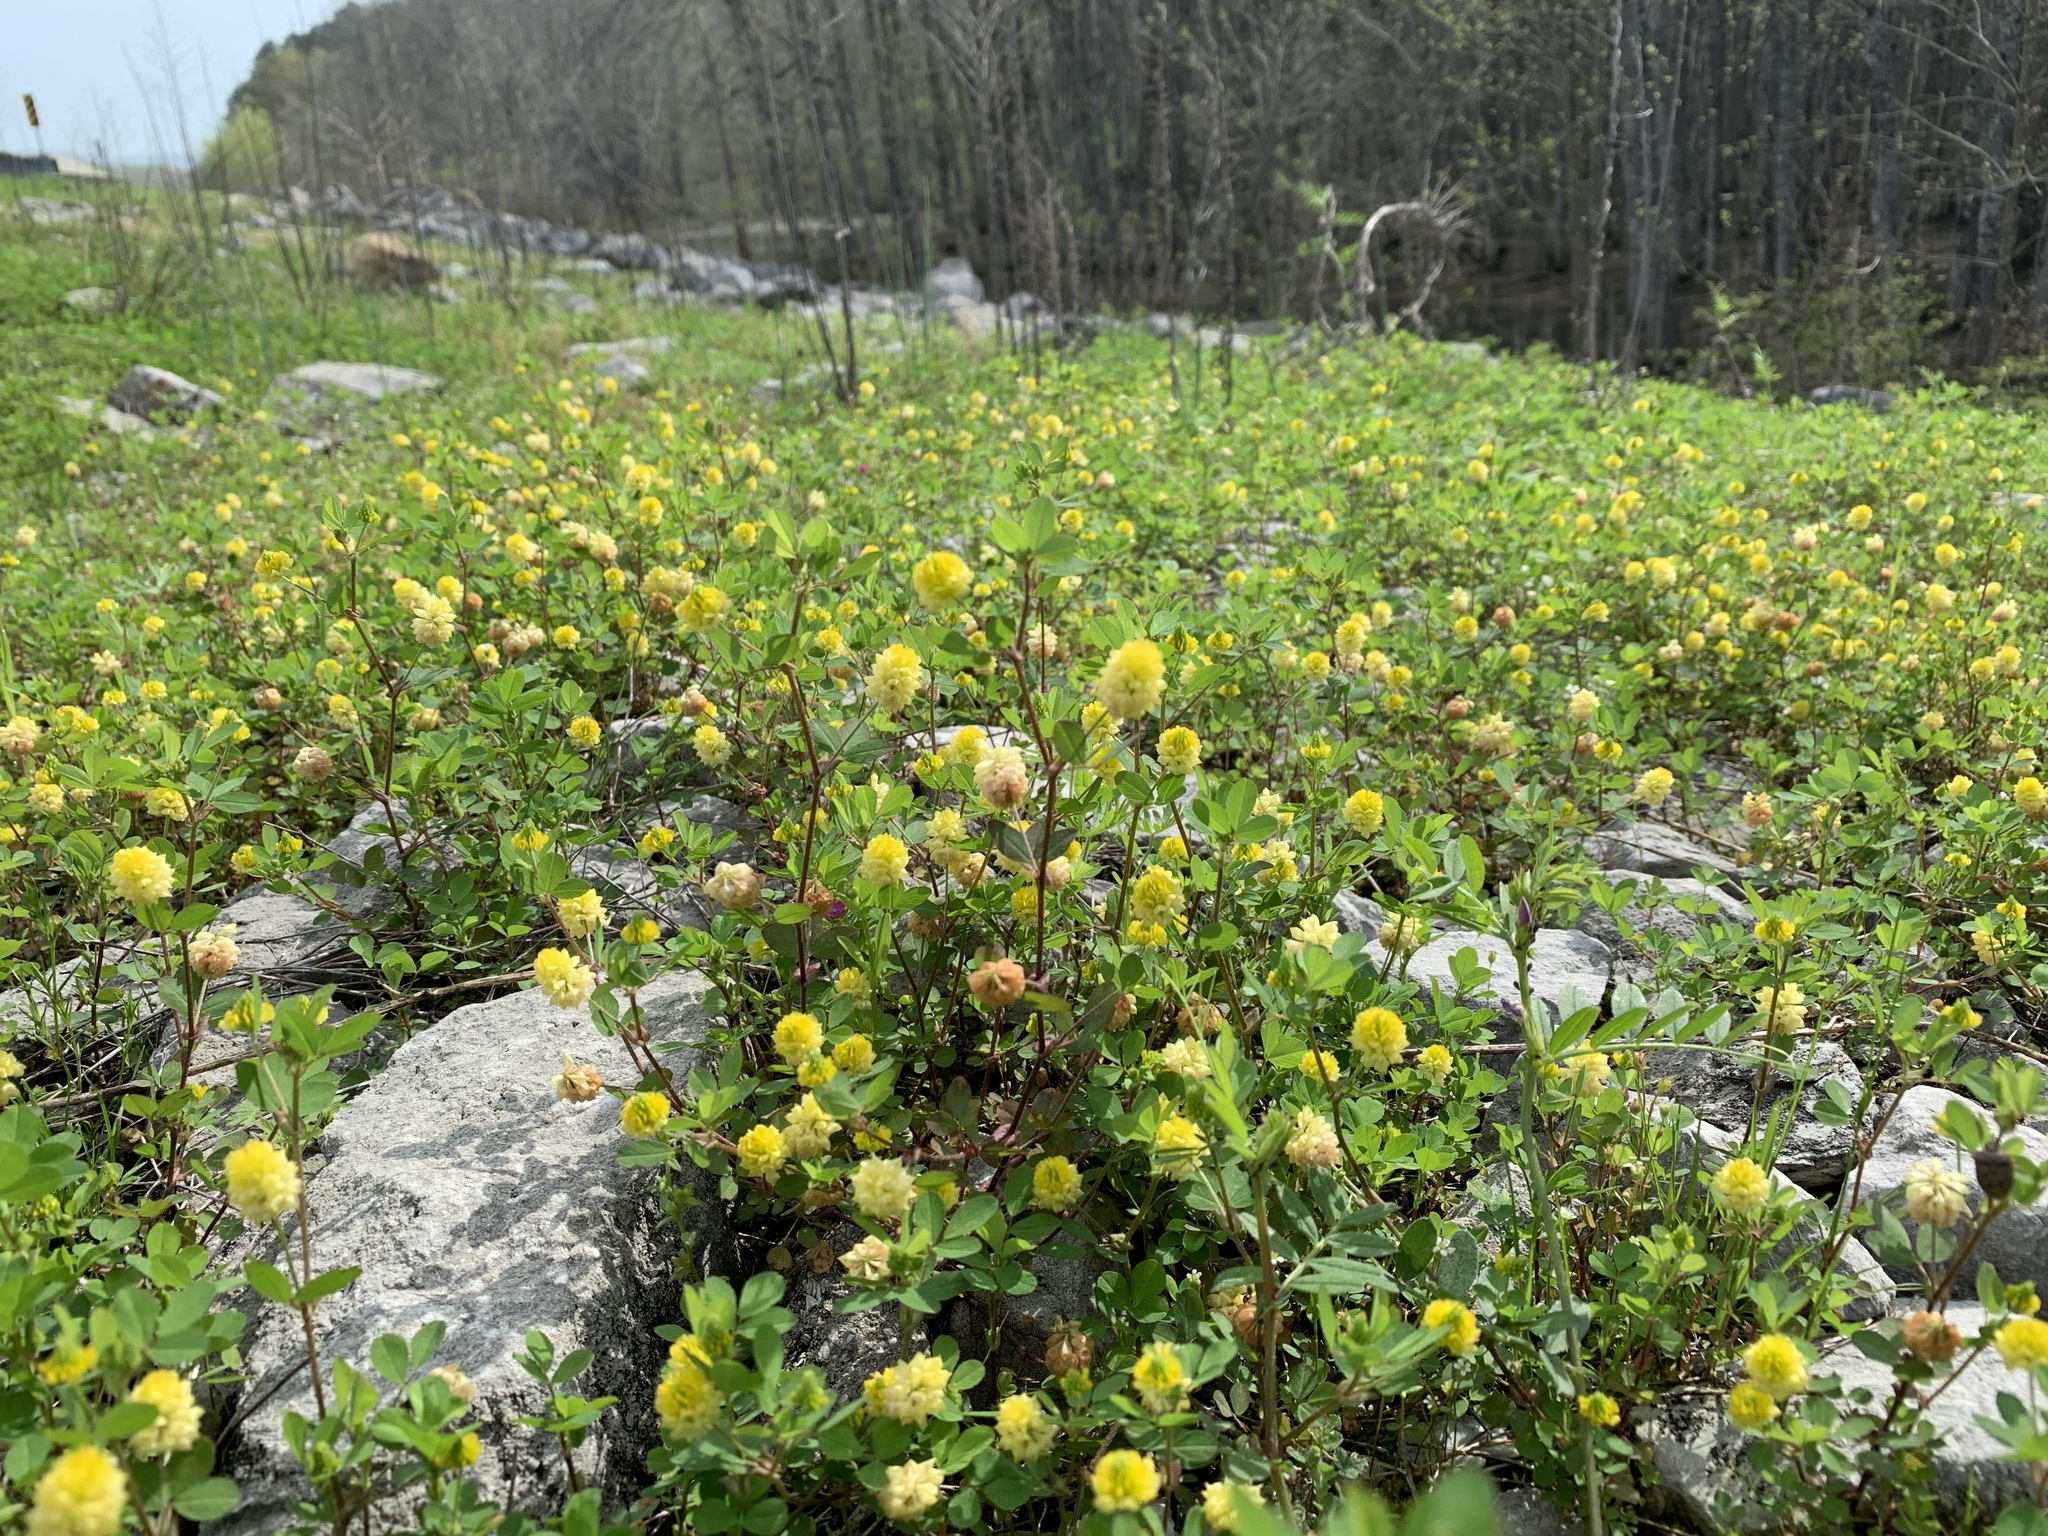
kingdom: Plantae
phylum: Tracheophyta
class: Magnoliopsida
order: Fabales
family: Fabaceae
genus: Trifolium
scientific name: Trifolium campestre
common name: Field clover
